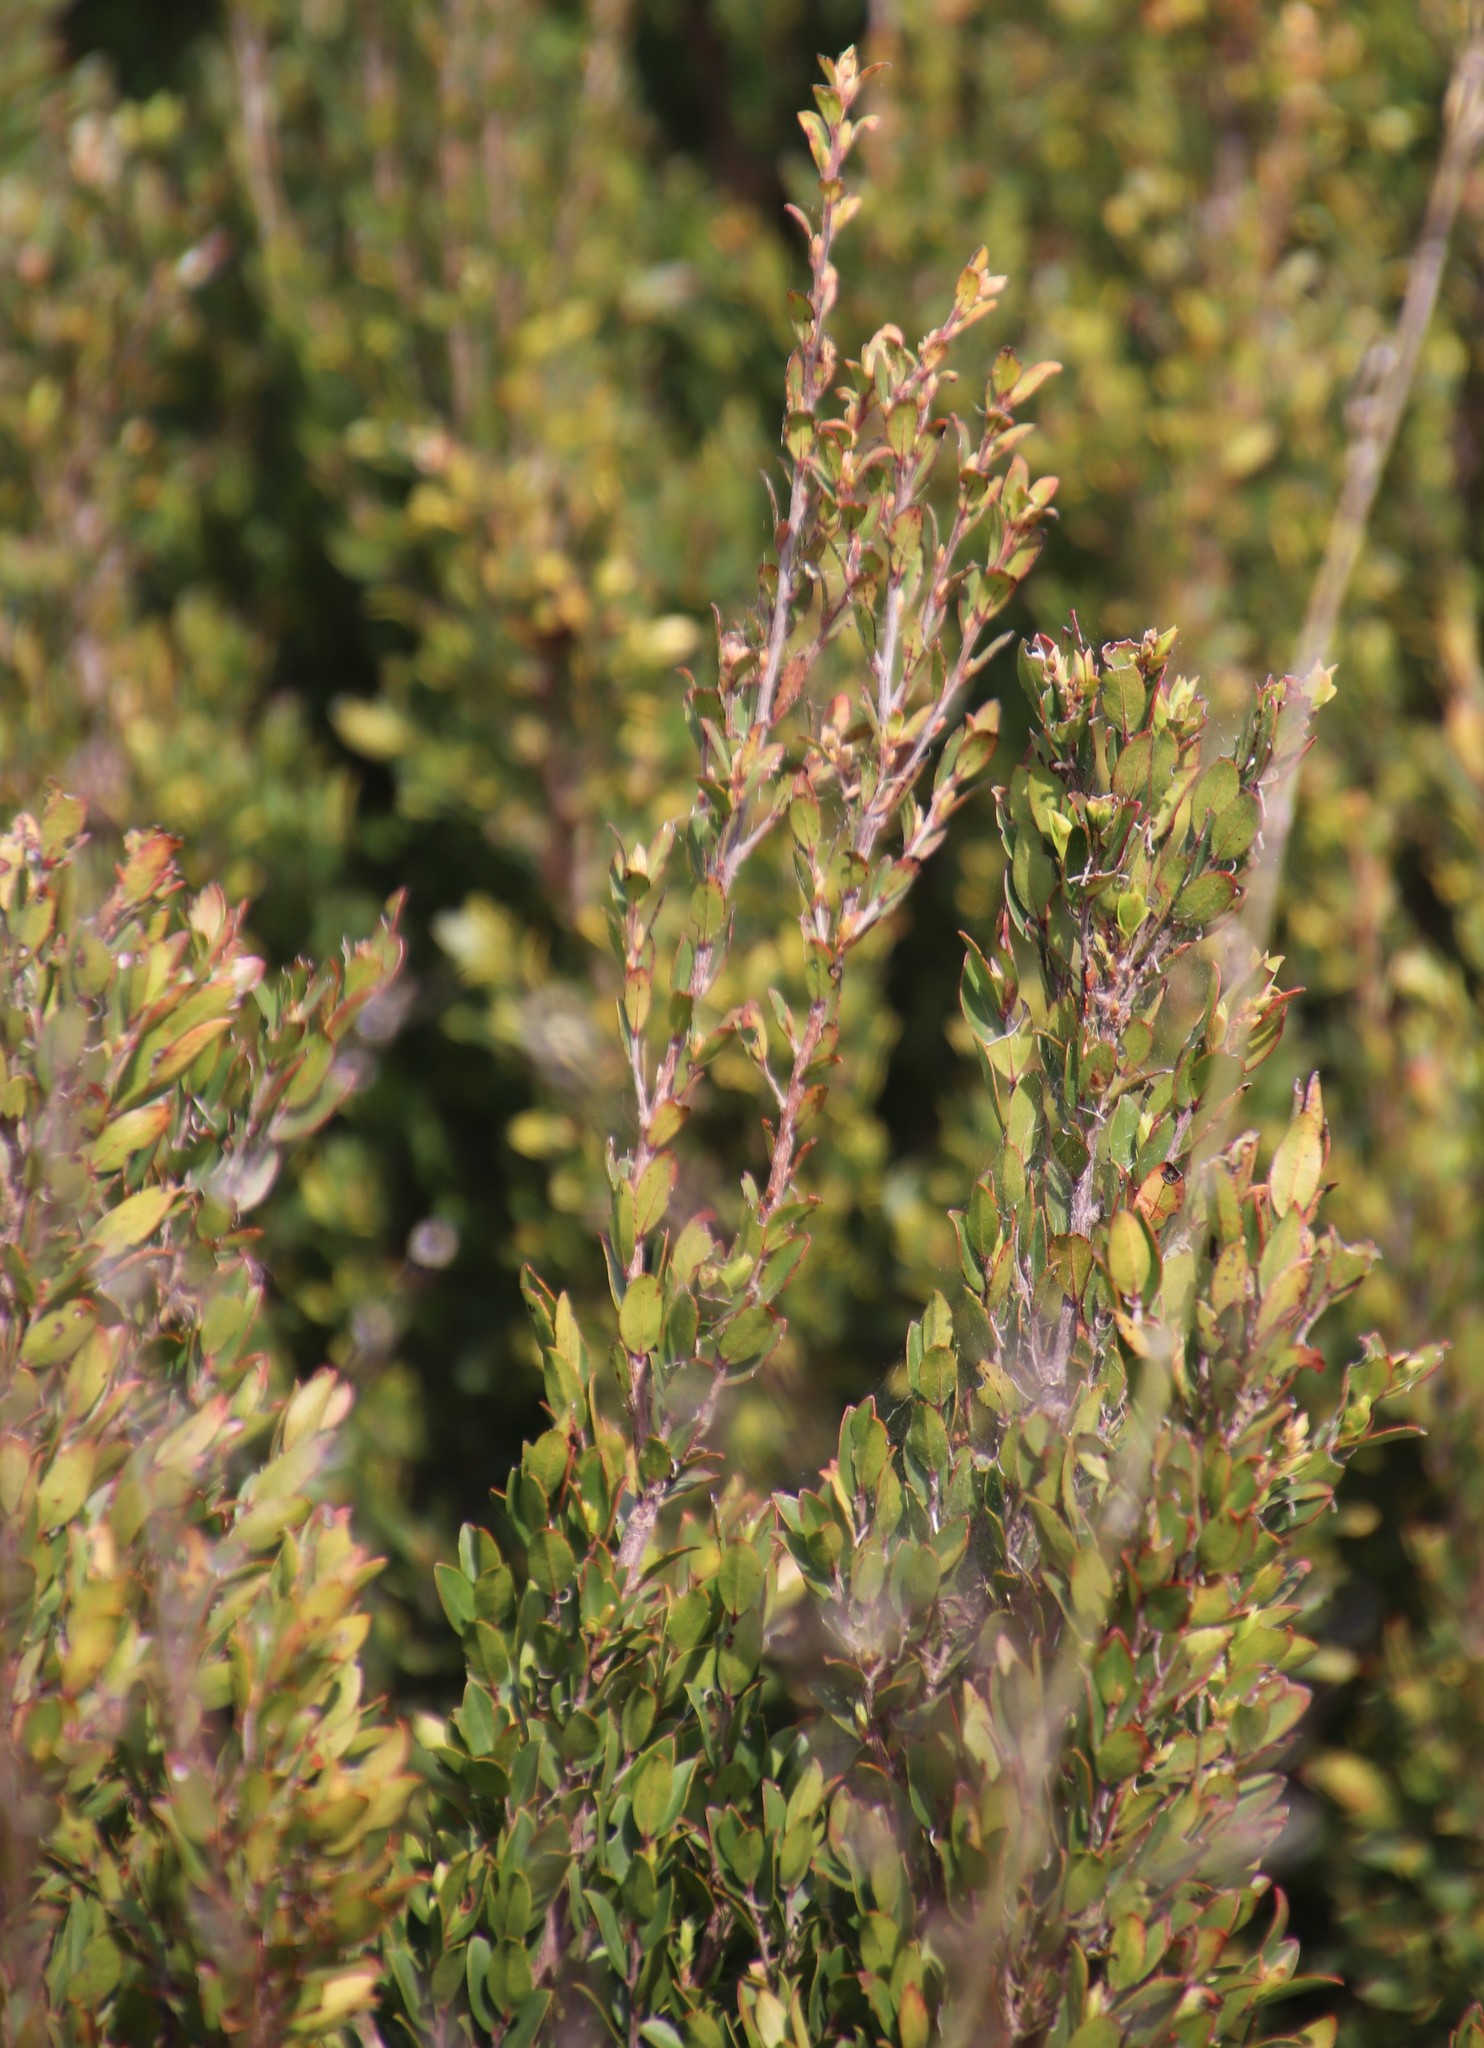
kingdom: Plantae
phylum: Tracheophyta
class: Magnoliopsida
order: Ericales
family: Ebenaceae
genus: Diospyros
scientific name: Diospyros glabra
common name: Fynbos star apple
